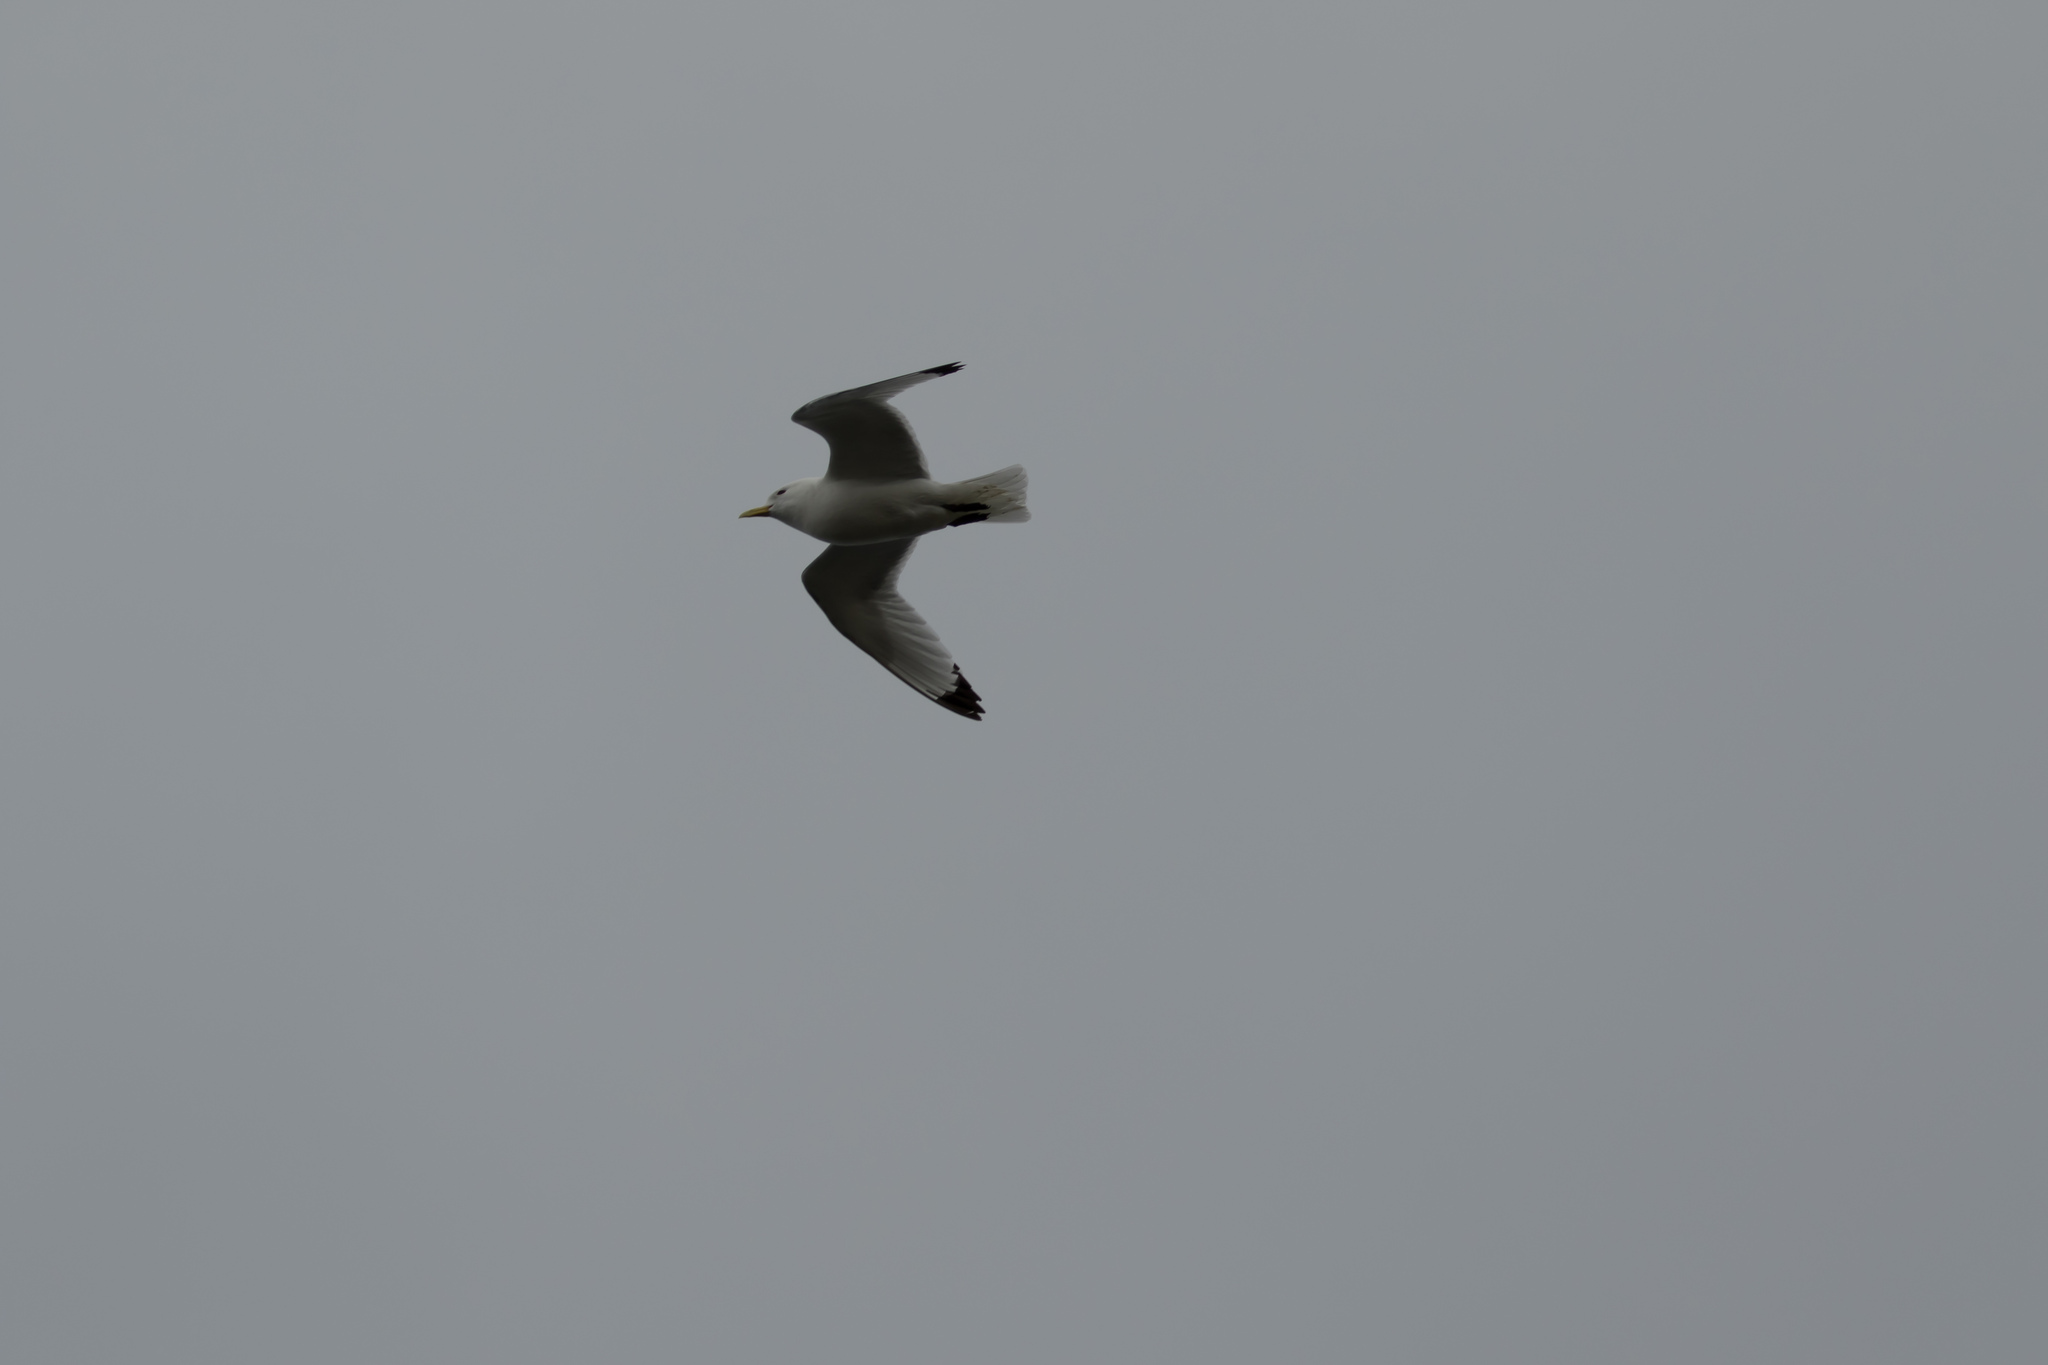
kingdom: Animalia
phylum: Chordata
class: Aves
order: Charadriiformes
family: Laridae
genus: Rissa
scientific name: Rissa tridactyla
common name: Black-legged kittiwake
